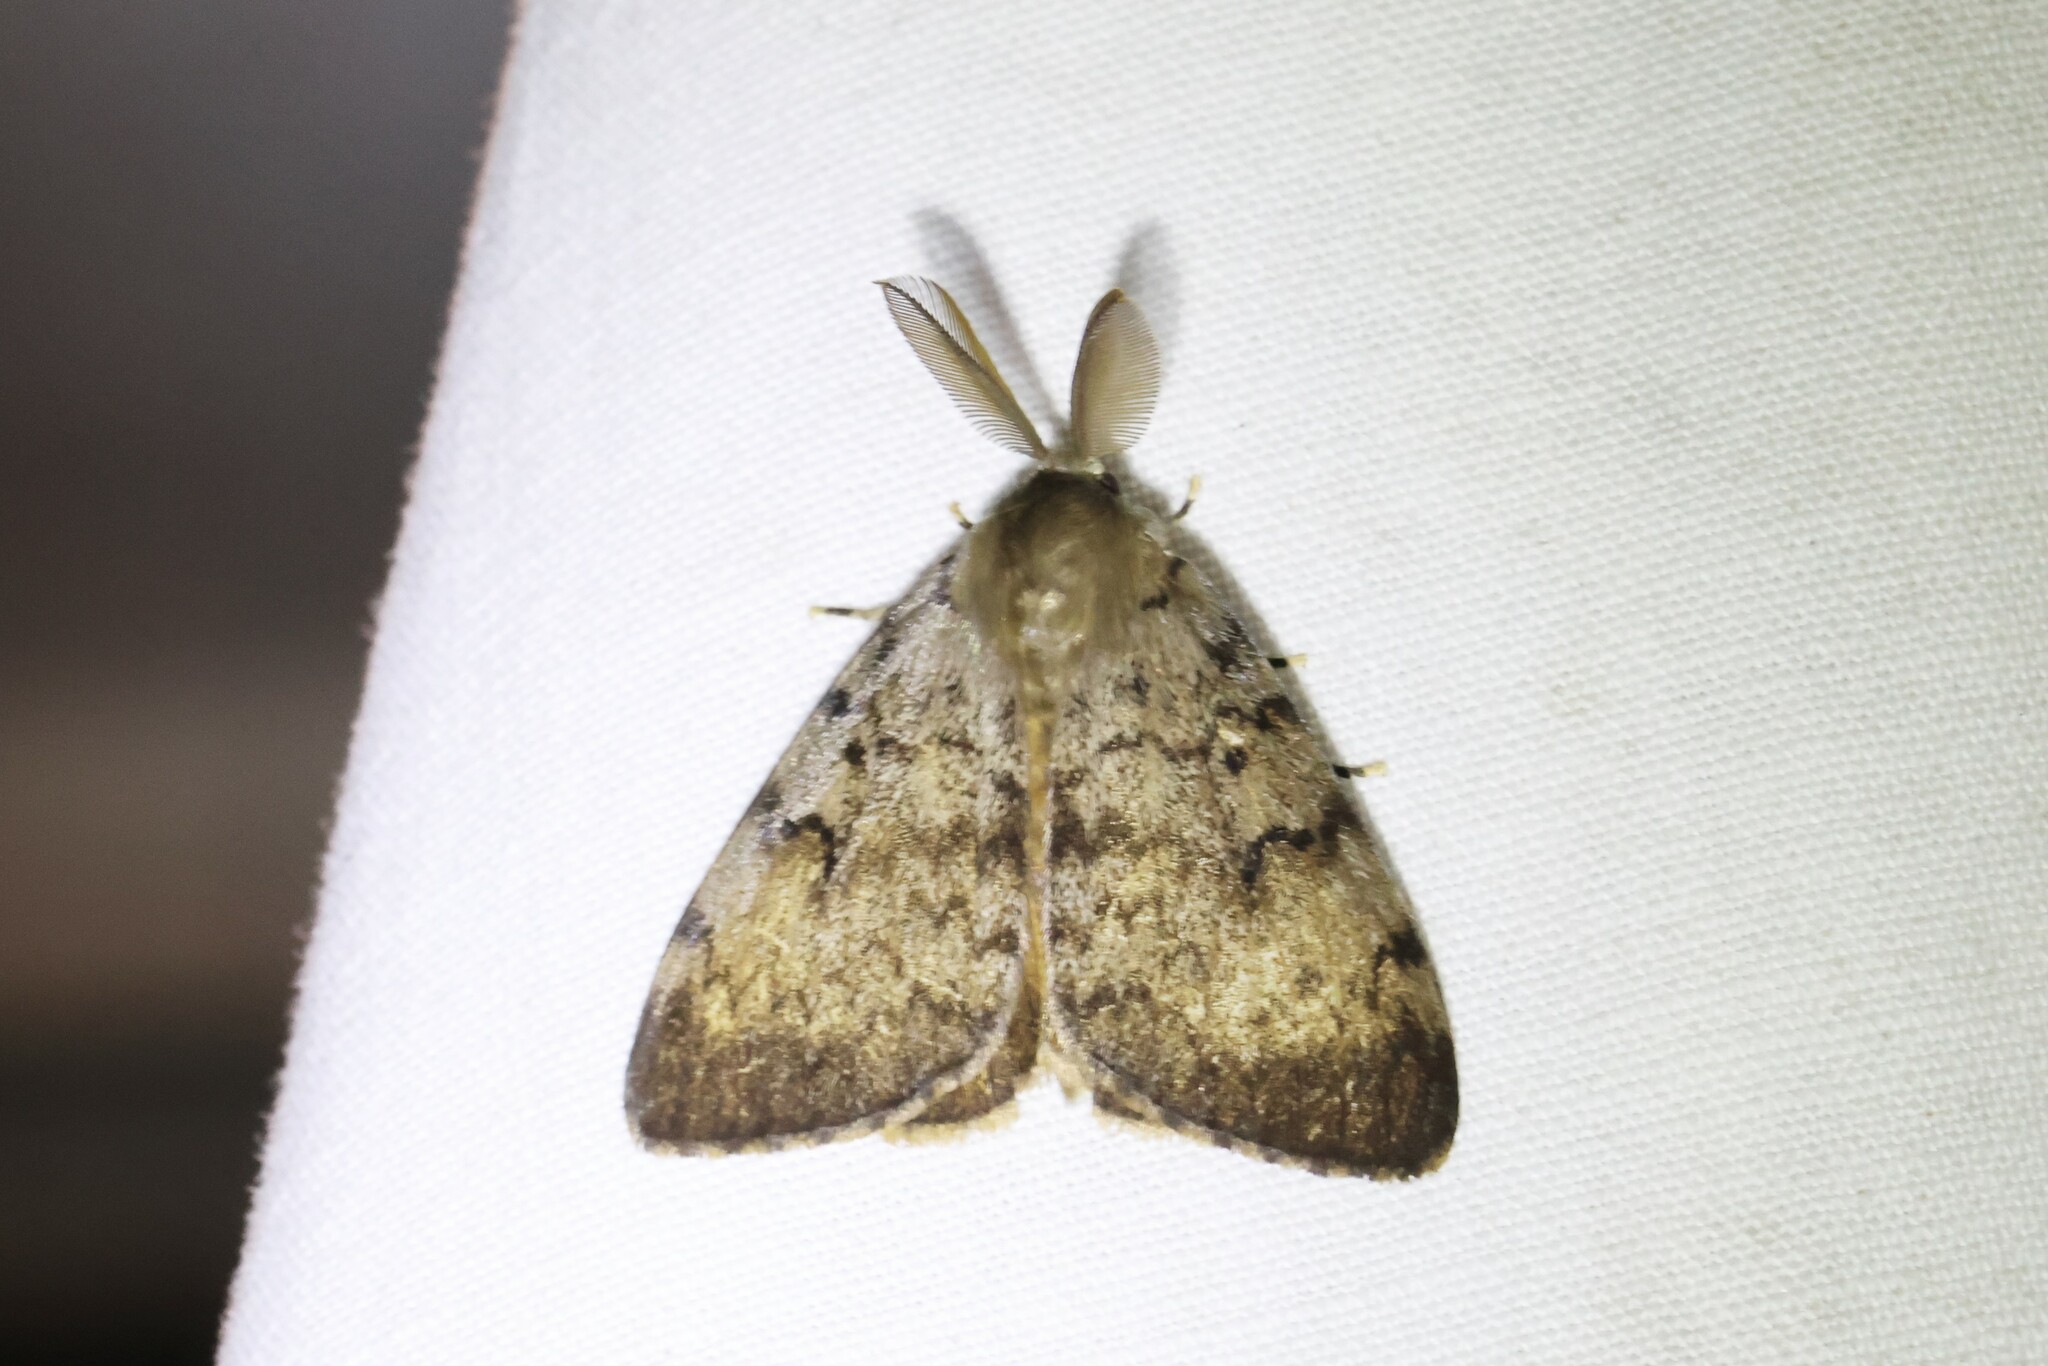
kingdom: Animalia
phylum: Arthropoda
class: Insecta
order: Lepidoptera
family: Erebidae
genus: Lymantria
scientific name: Lymantria dispar
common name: Gypsy moth
